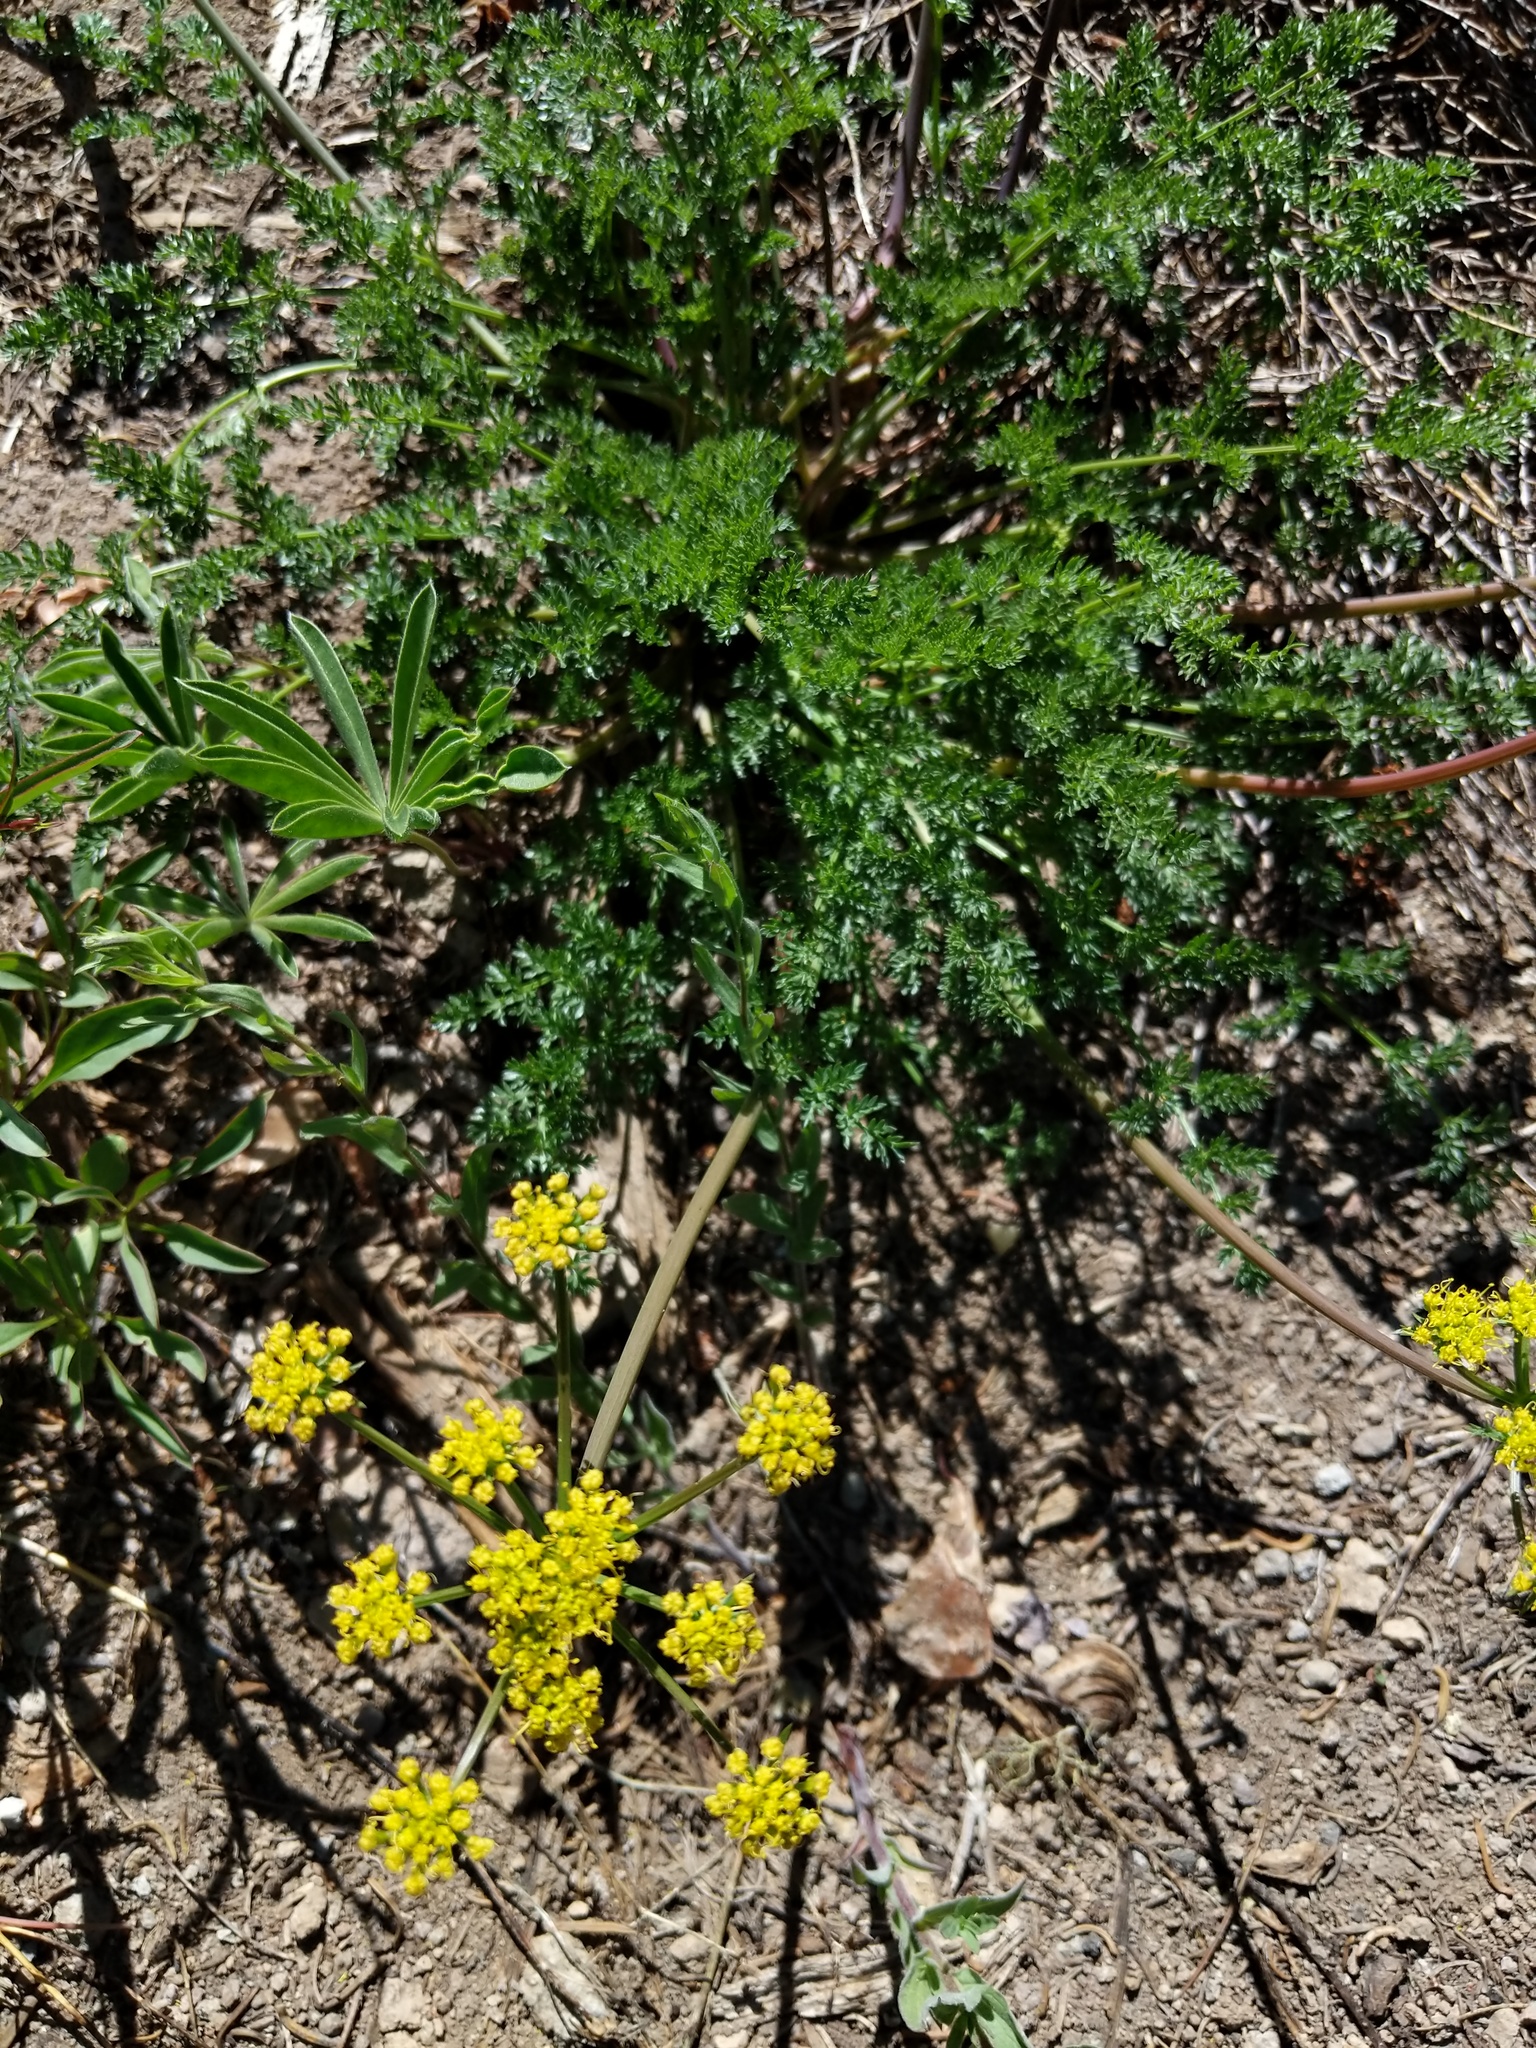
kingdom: Plantae
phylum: Tracheophyta
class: Magnoliopsida
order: Apiales
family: Apiaceae
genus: Pteryxia
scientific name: Pteryxia terebinthina
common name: Turpentine wavewing
